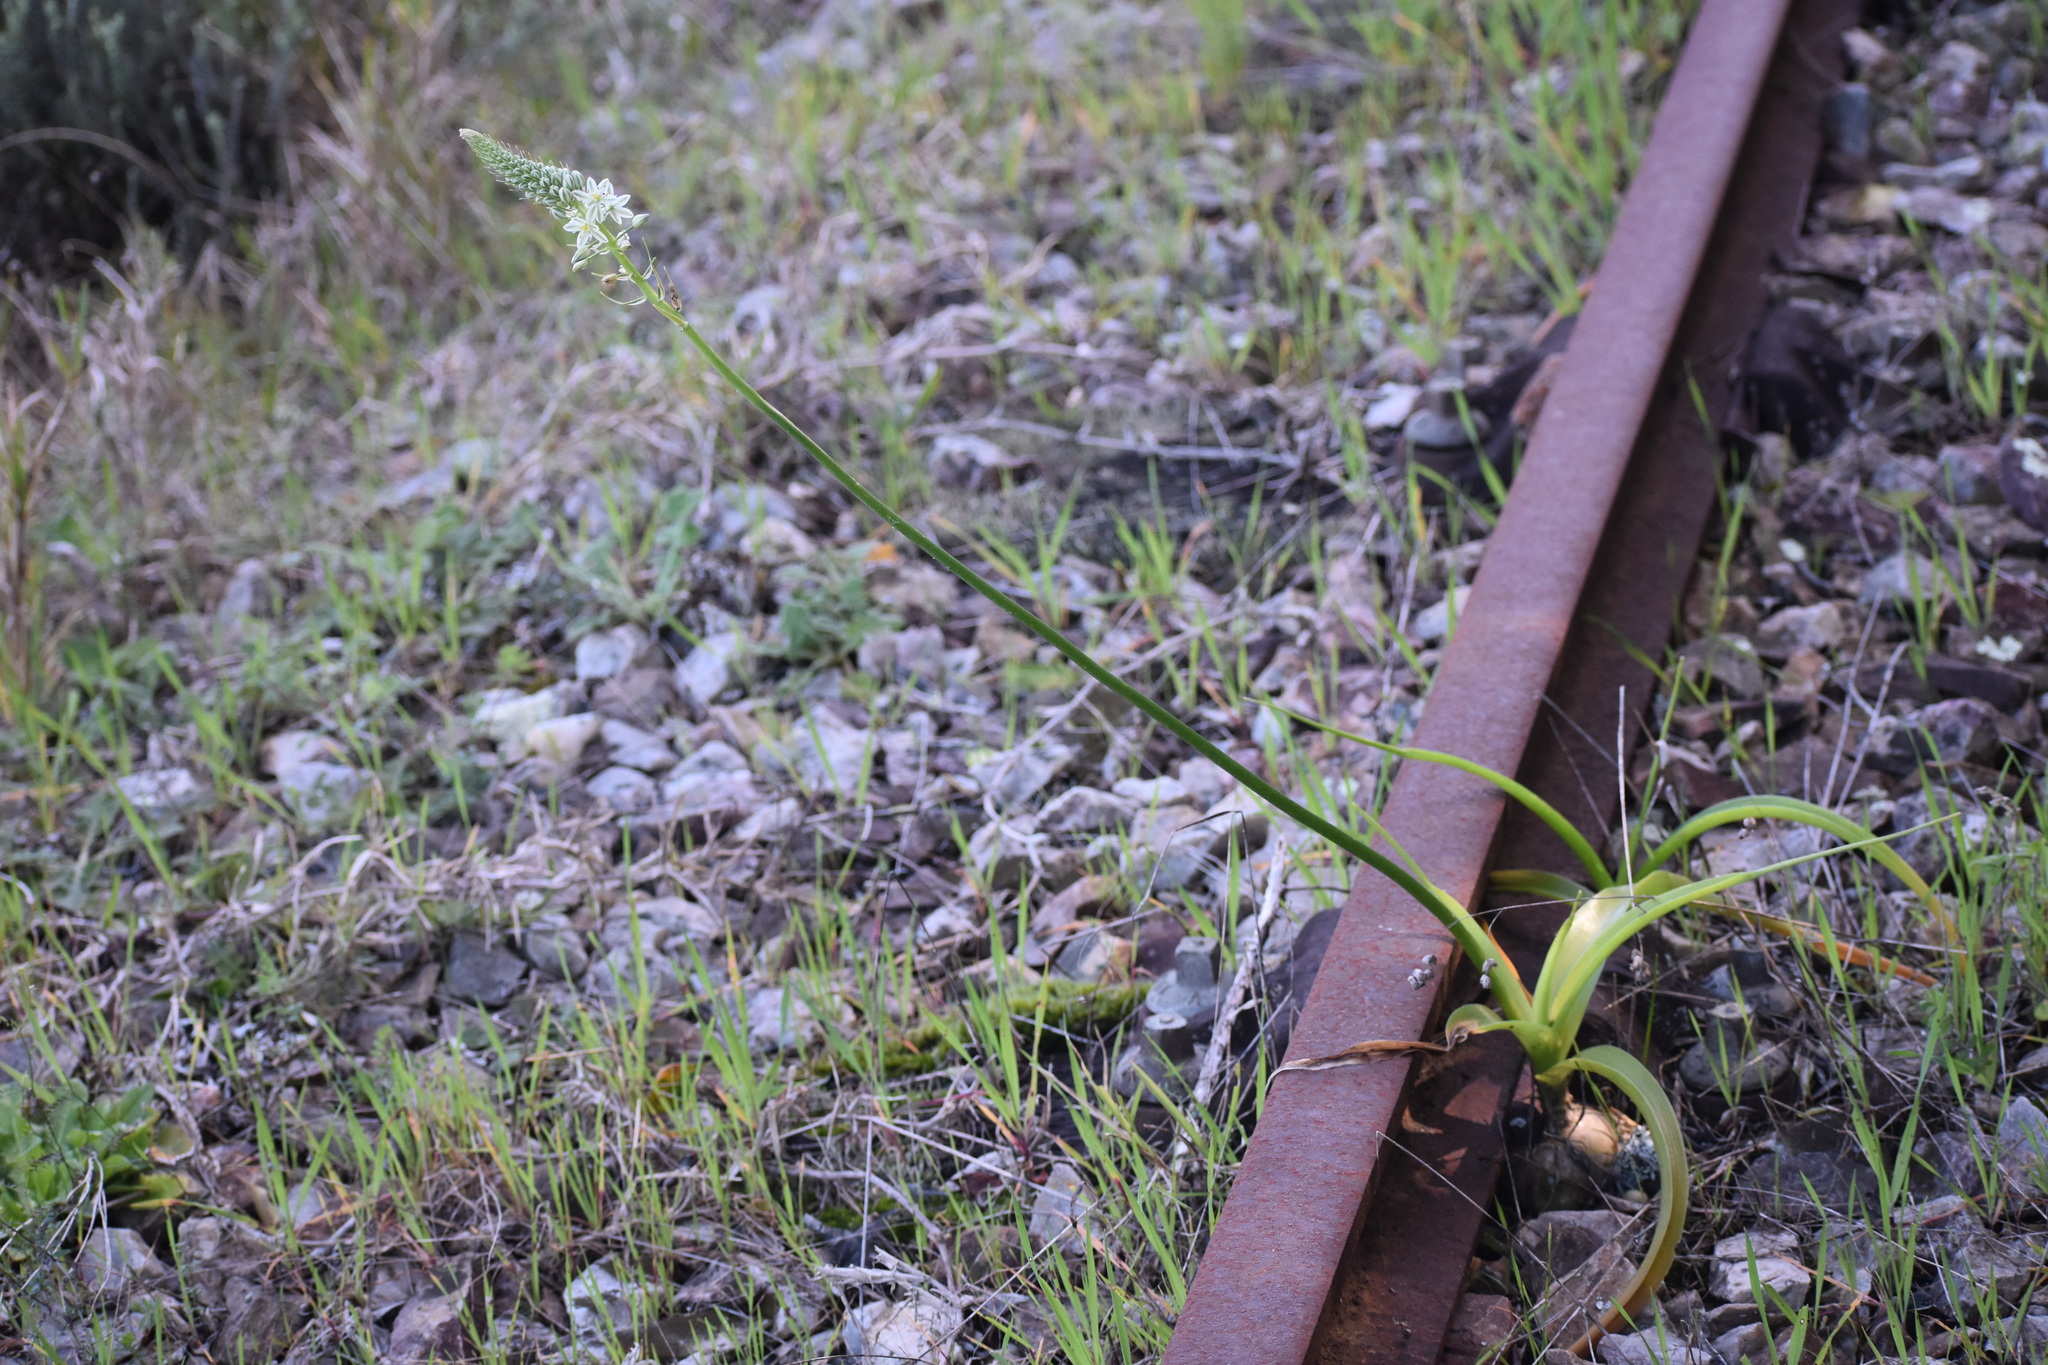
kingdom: Plantae
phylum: Tracheophyta
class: Liliopsida
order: Asparagales
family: Asparagaceae
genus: Albuca
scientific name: Albuca bracteata
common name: Sea-onion
